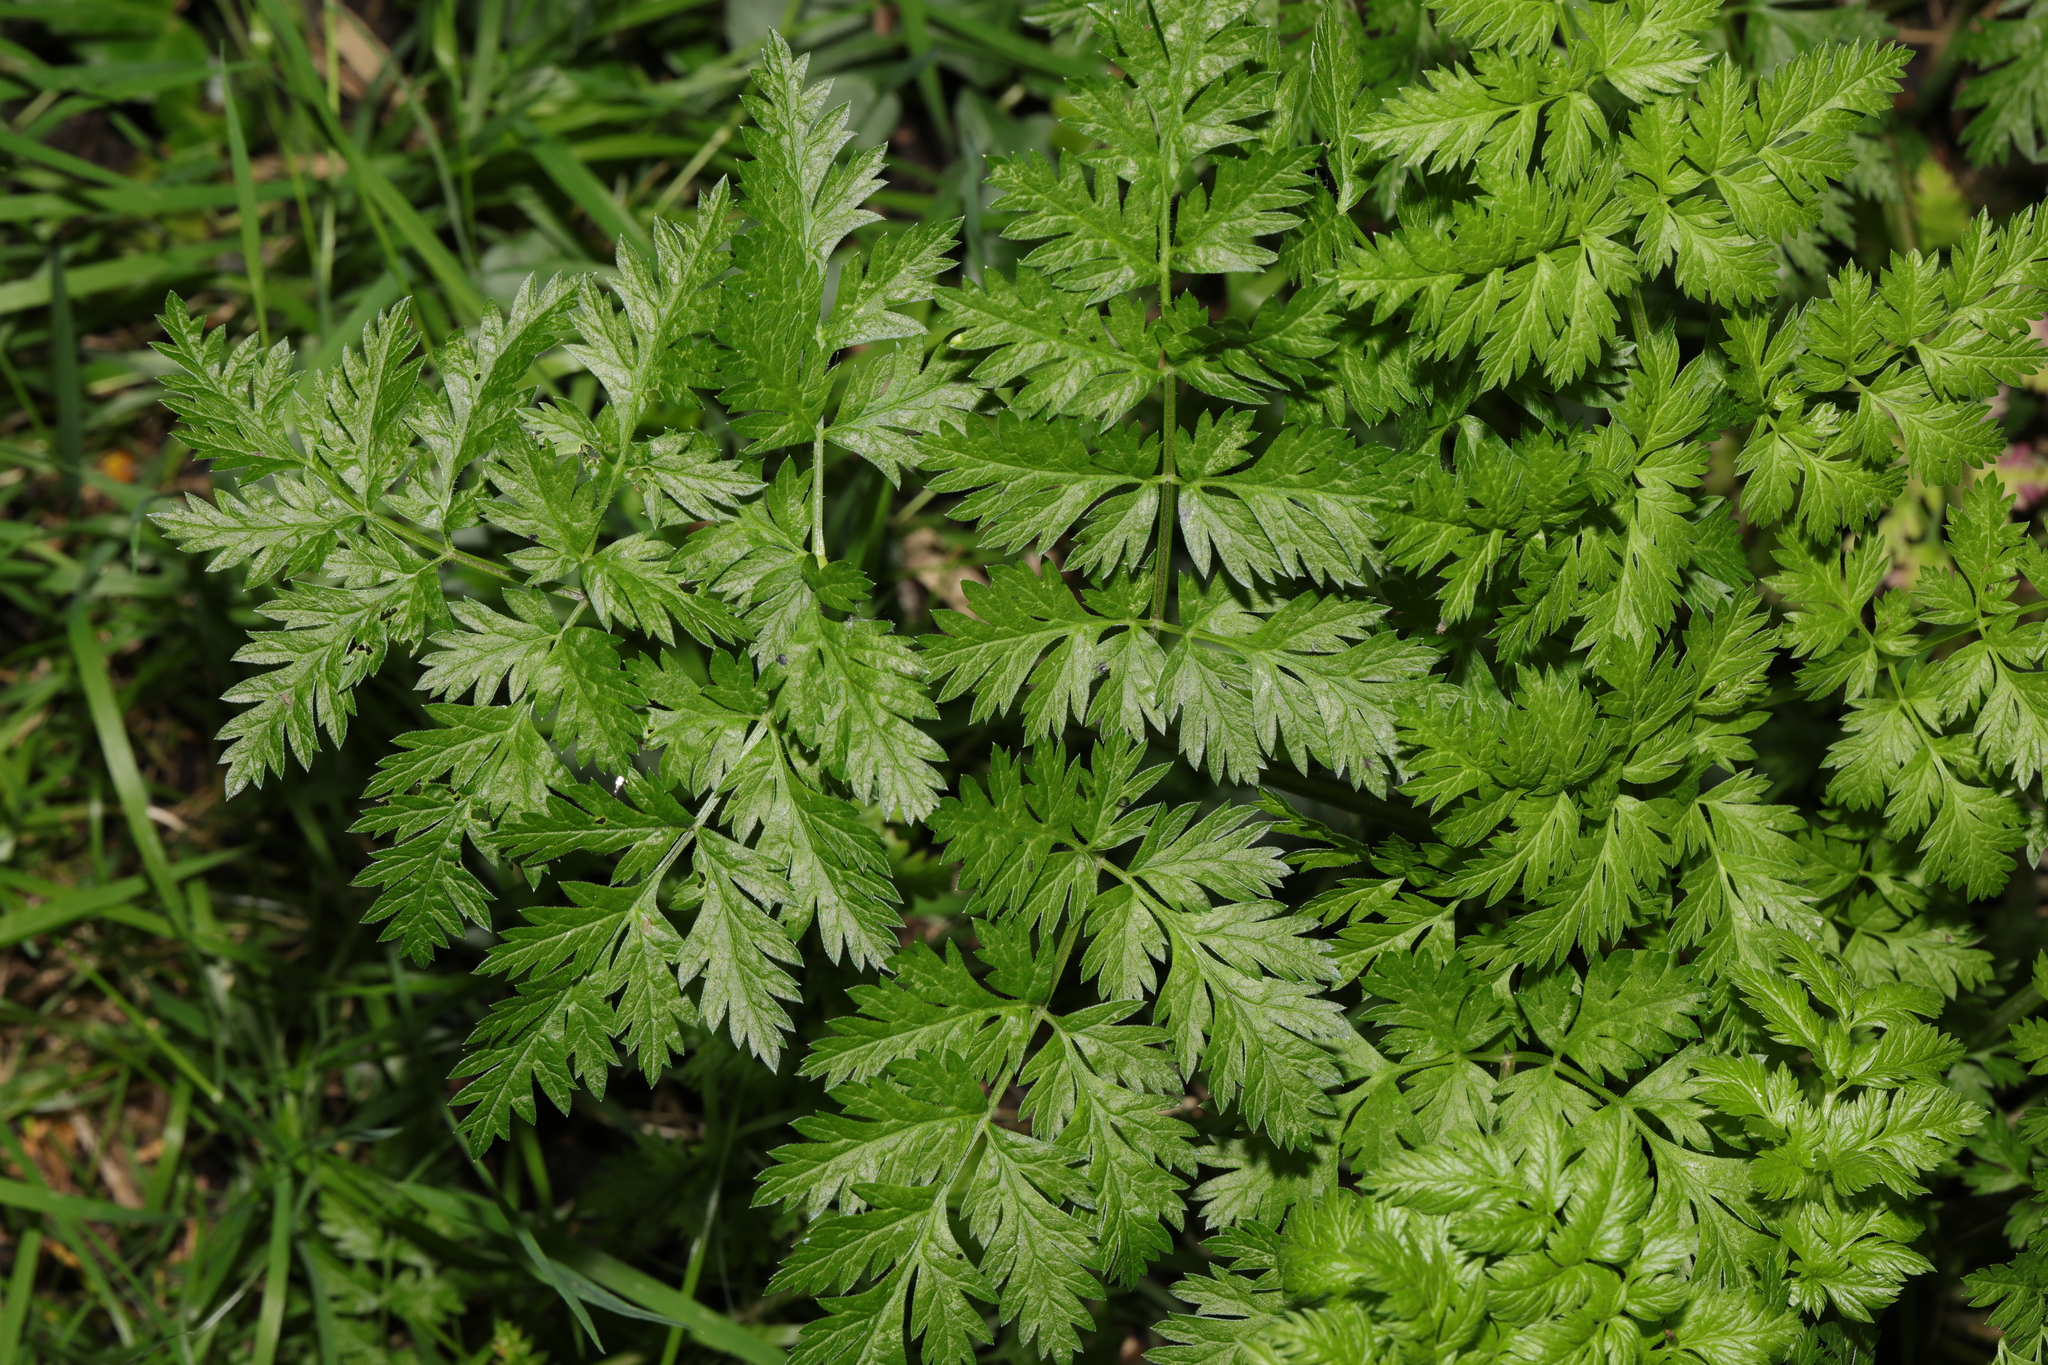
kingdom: Plantae
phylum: Tracheophyta
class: Magnoliopsida
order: Apiales
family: Apiaceae
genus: Anthriscus
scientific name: Anthriscus sylvestris
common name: Cow parsley
